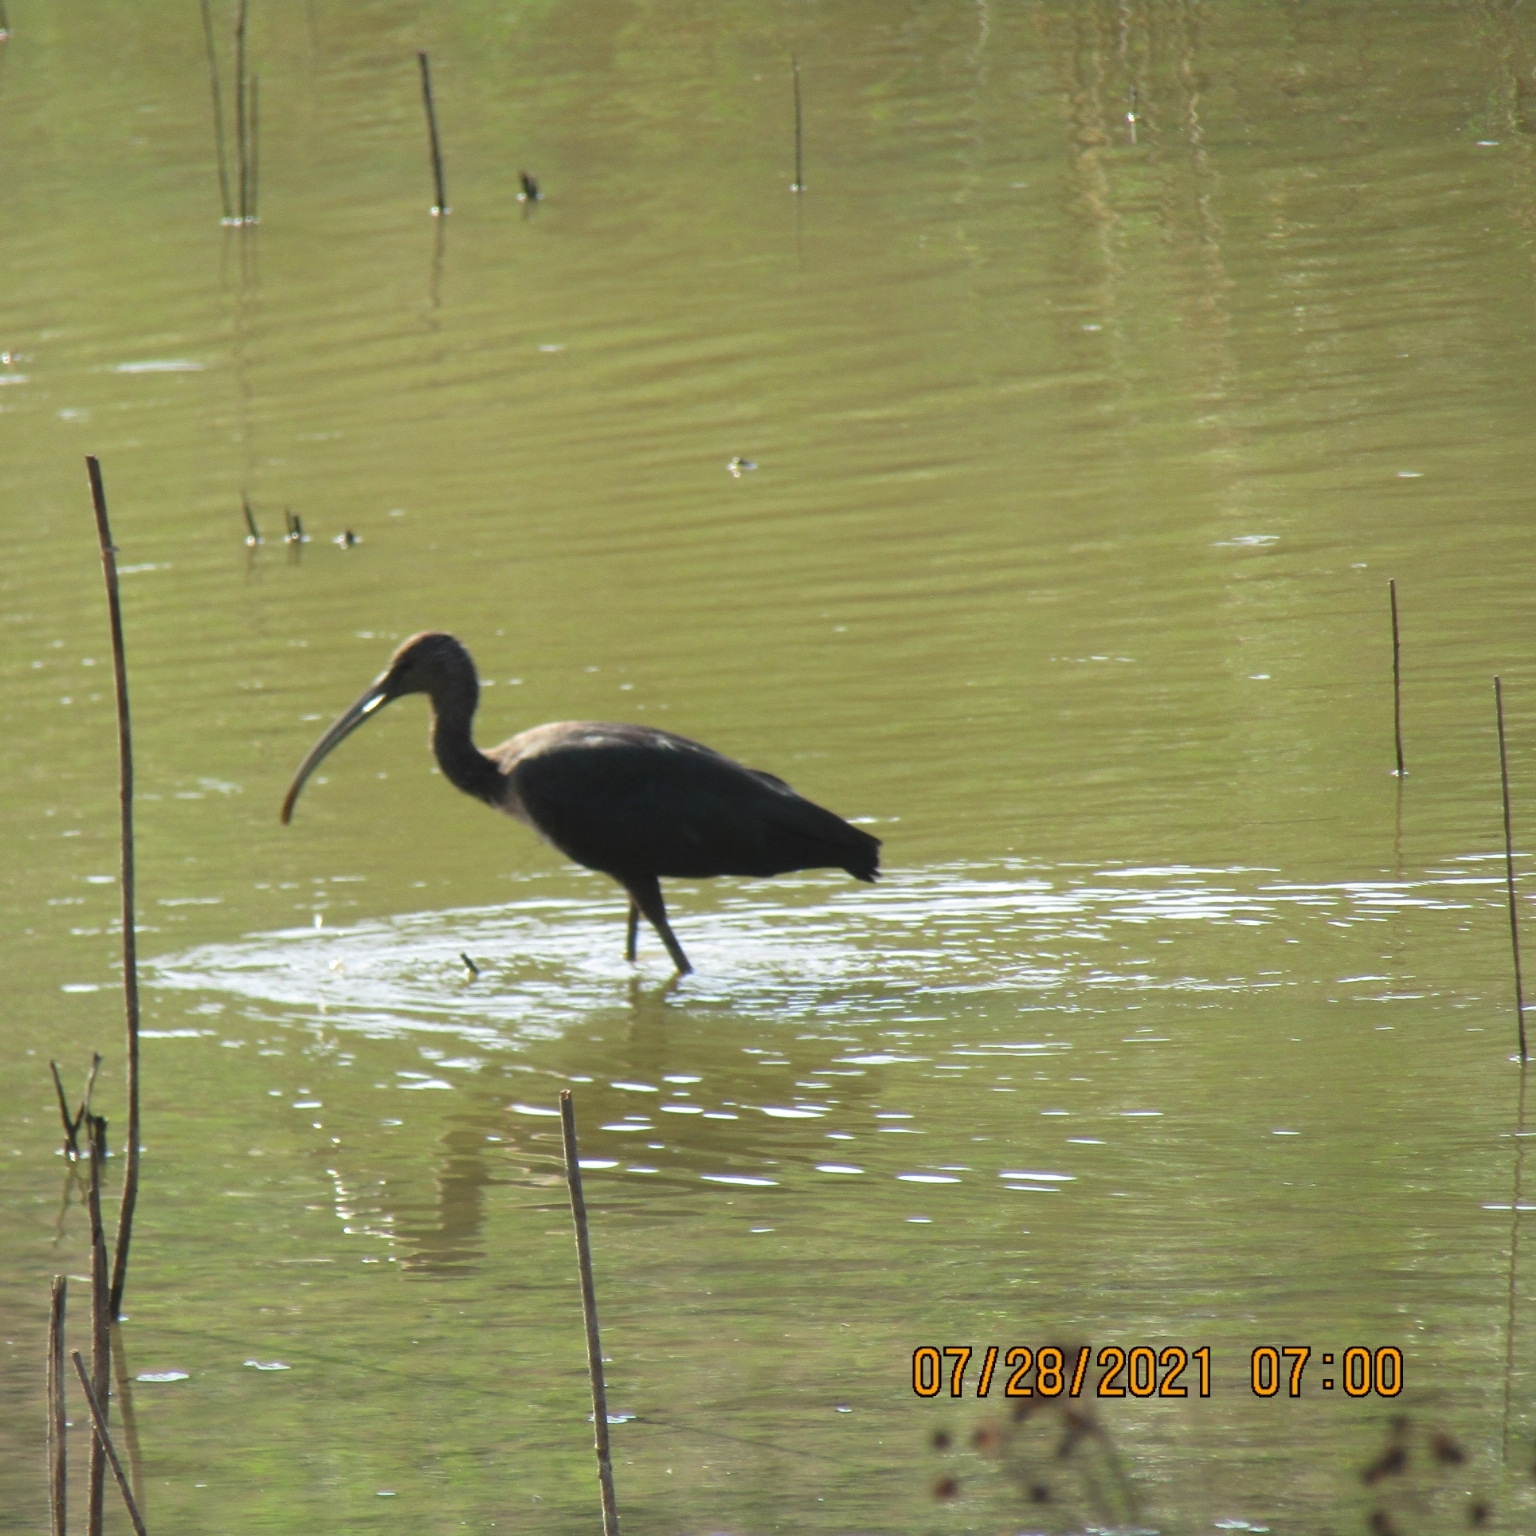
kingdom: Animalia
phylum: Chordata
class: Aves
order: Pelecaniformes
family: Threskiornithidae
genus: Plegadis
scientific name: Plegadis falcinellus
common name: Glossy ibis
